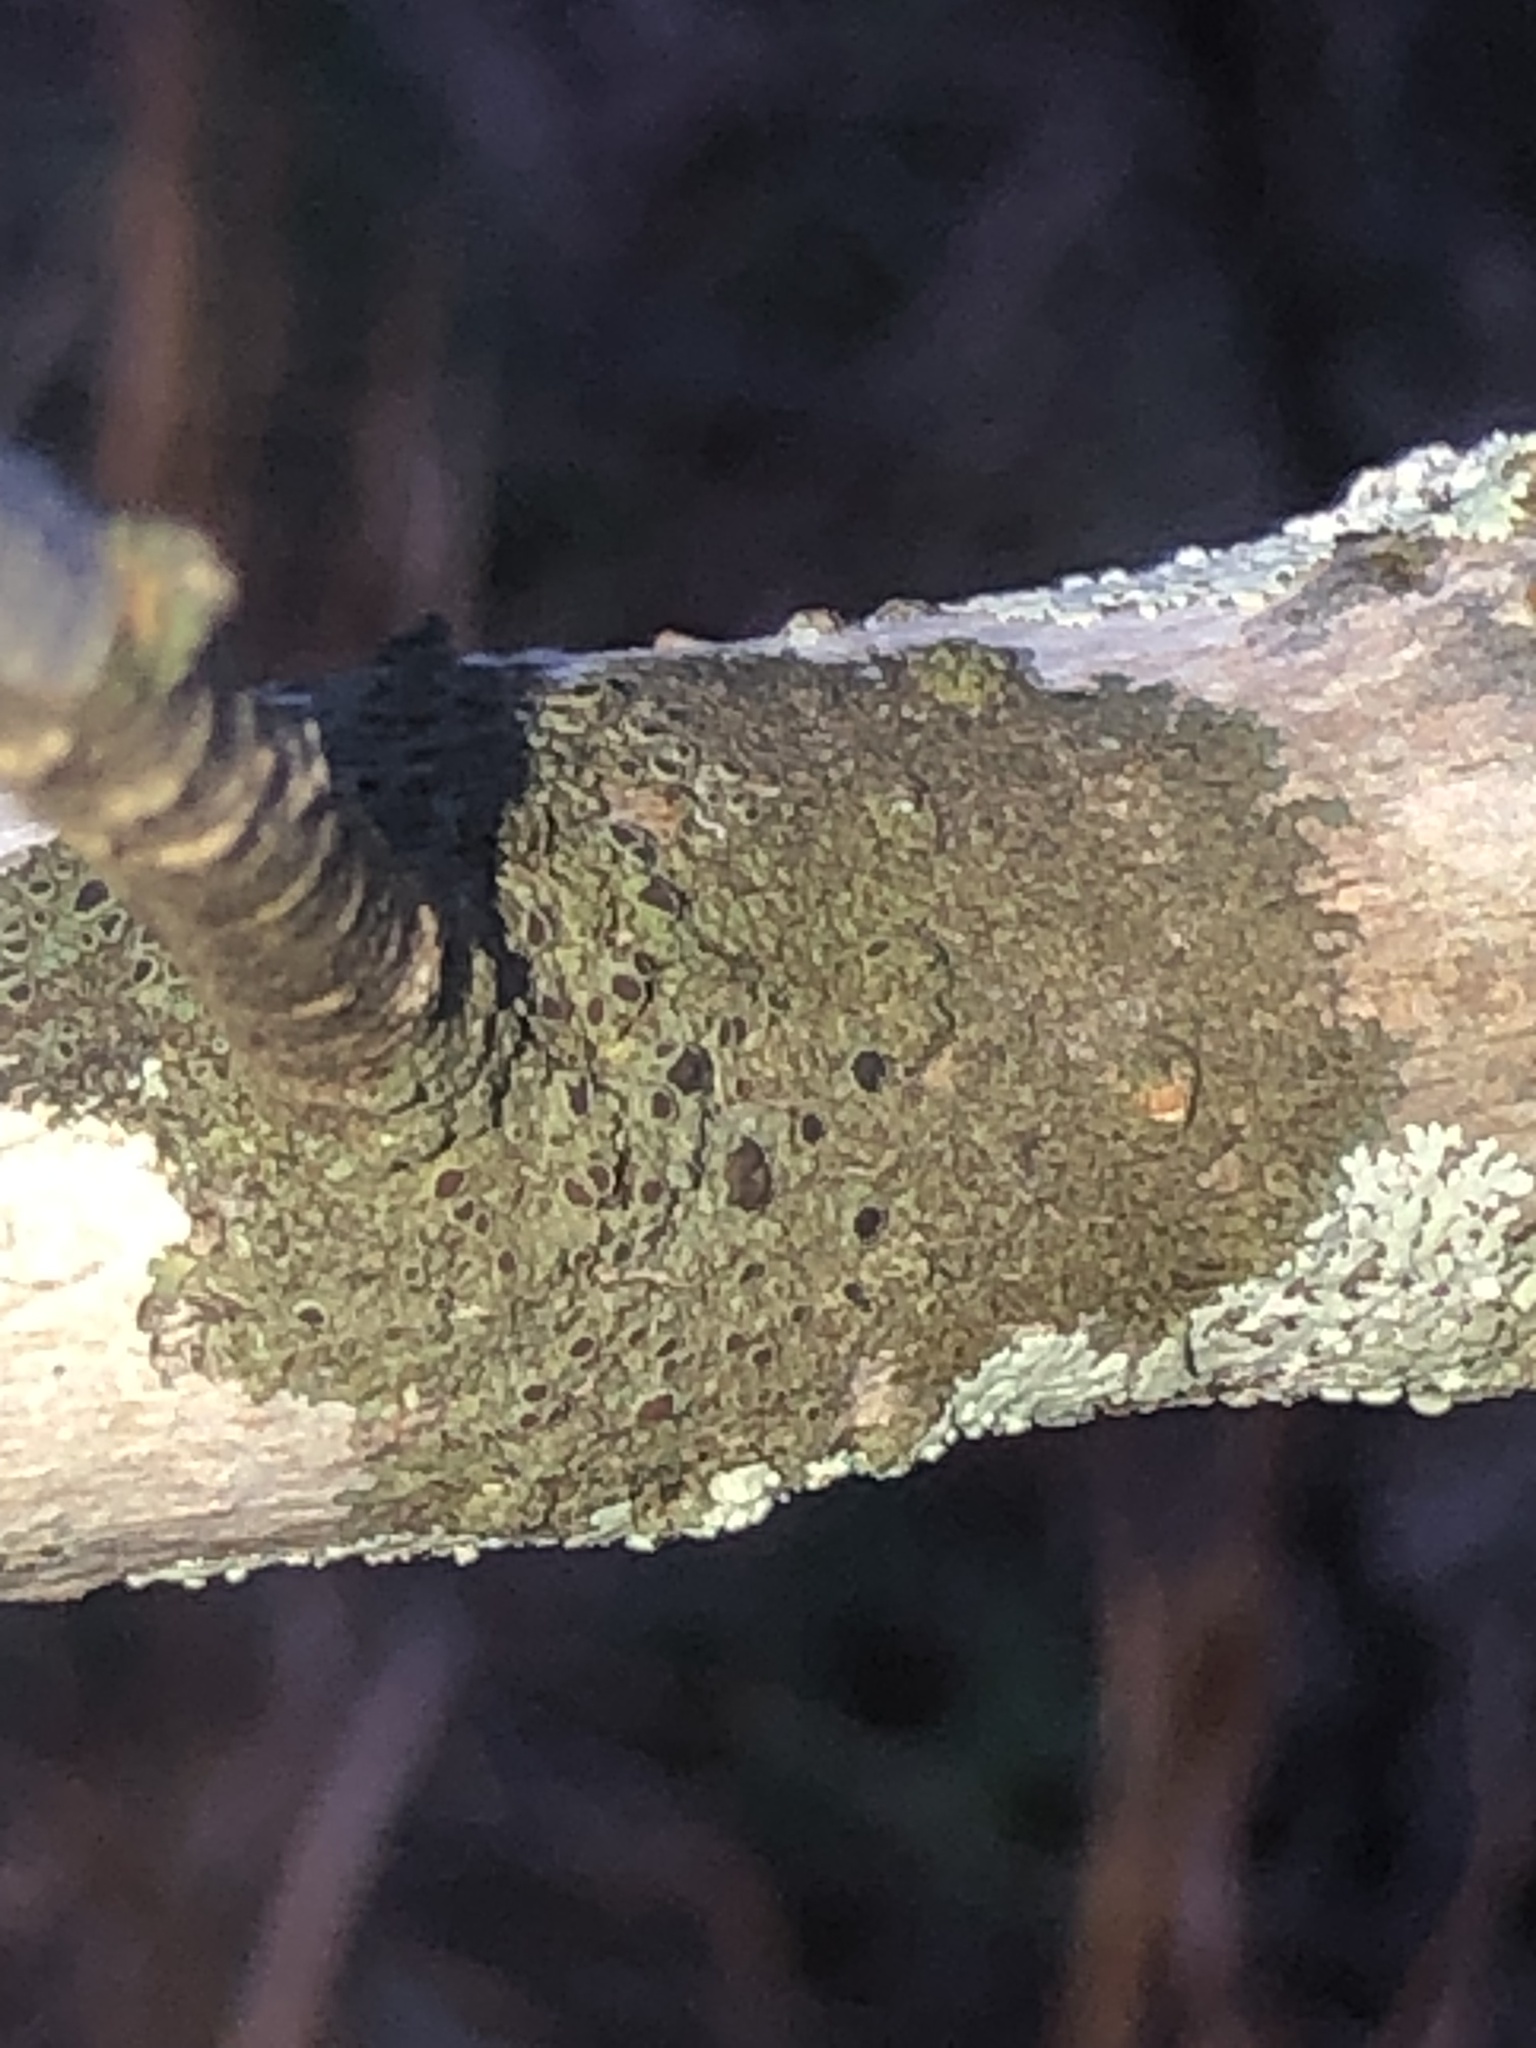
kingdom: Fungi
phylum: Ascomycota
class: Lecanoromycetes
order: Caliciales
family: Physciaceae
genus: Hyperphyscia
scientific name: Hyperphyscia syncolla
